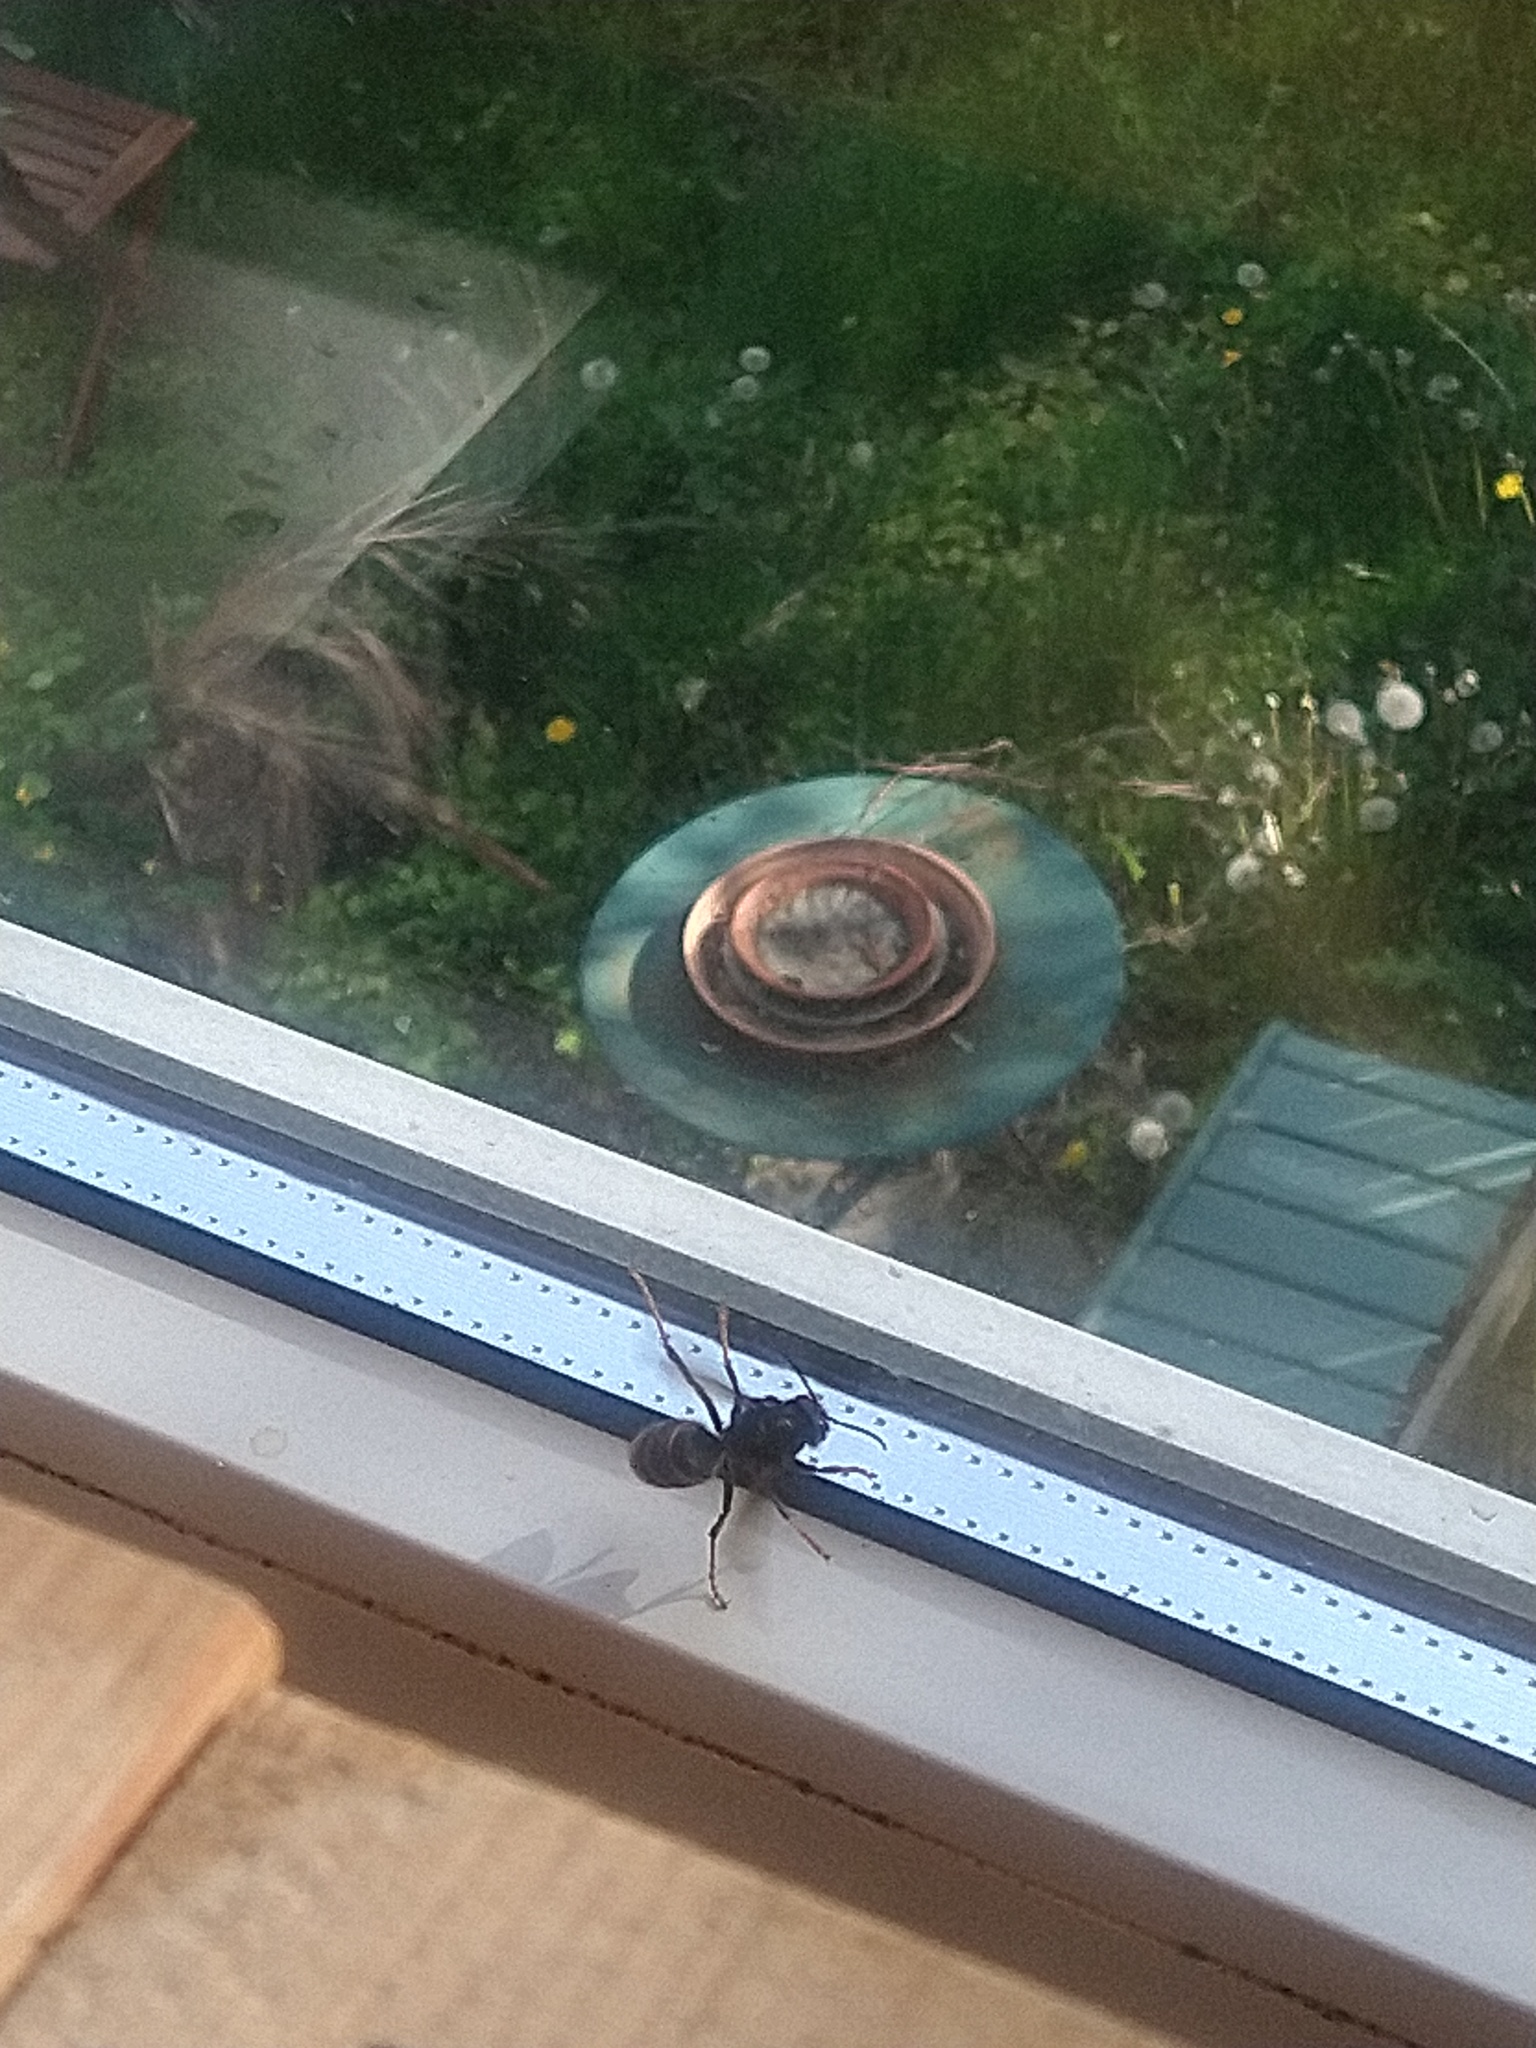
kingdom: Animalia
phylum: Arthropoda
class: Insecta
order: Hymenoptera
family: Vespidae
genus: Vespa
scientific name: Vespa velutina
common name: Asian hornet
